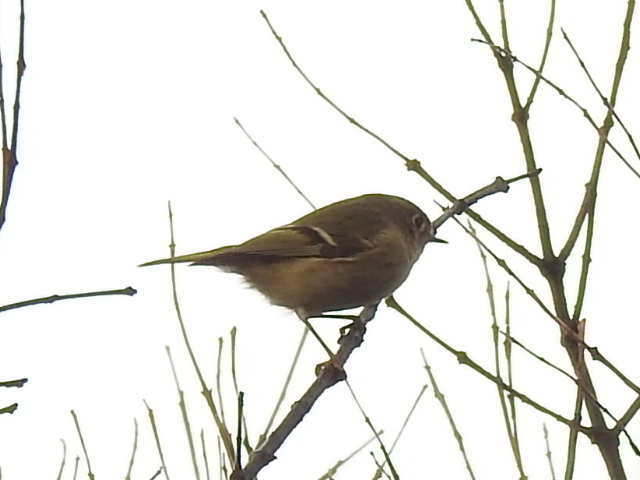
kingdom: Animalia
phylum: Chordata
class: Aves
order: Passeriformes
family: Regulidae
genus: Regulus
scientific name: Regulus calendula
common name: Ruby-crowned kinglet
